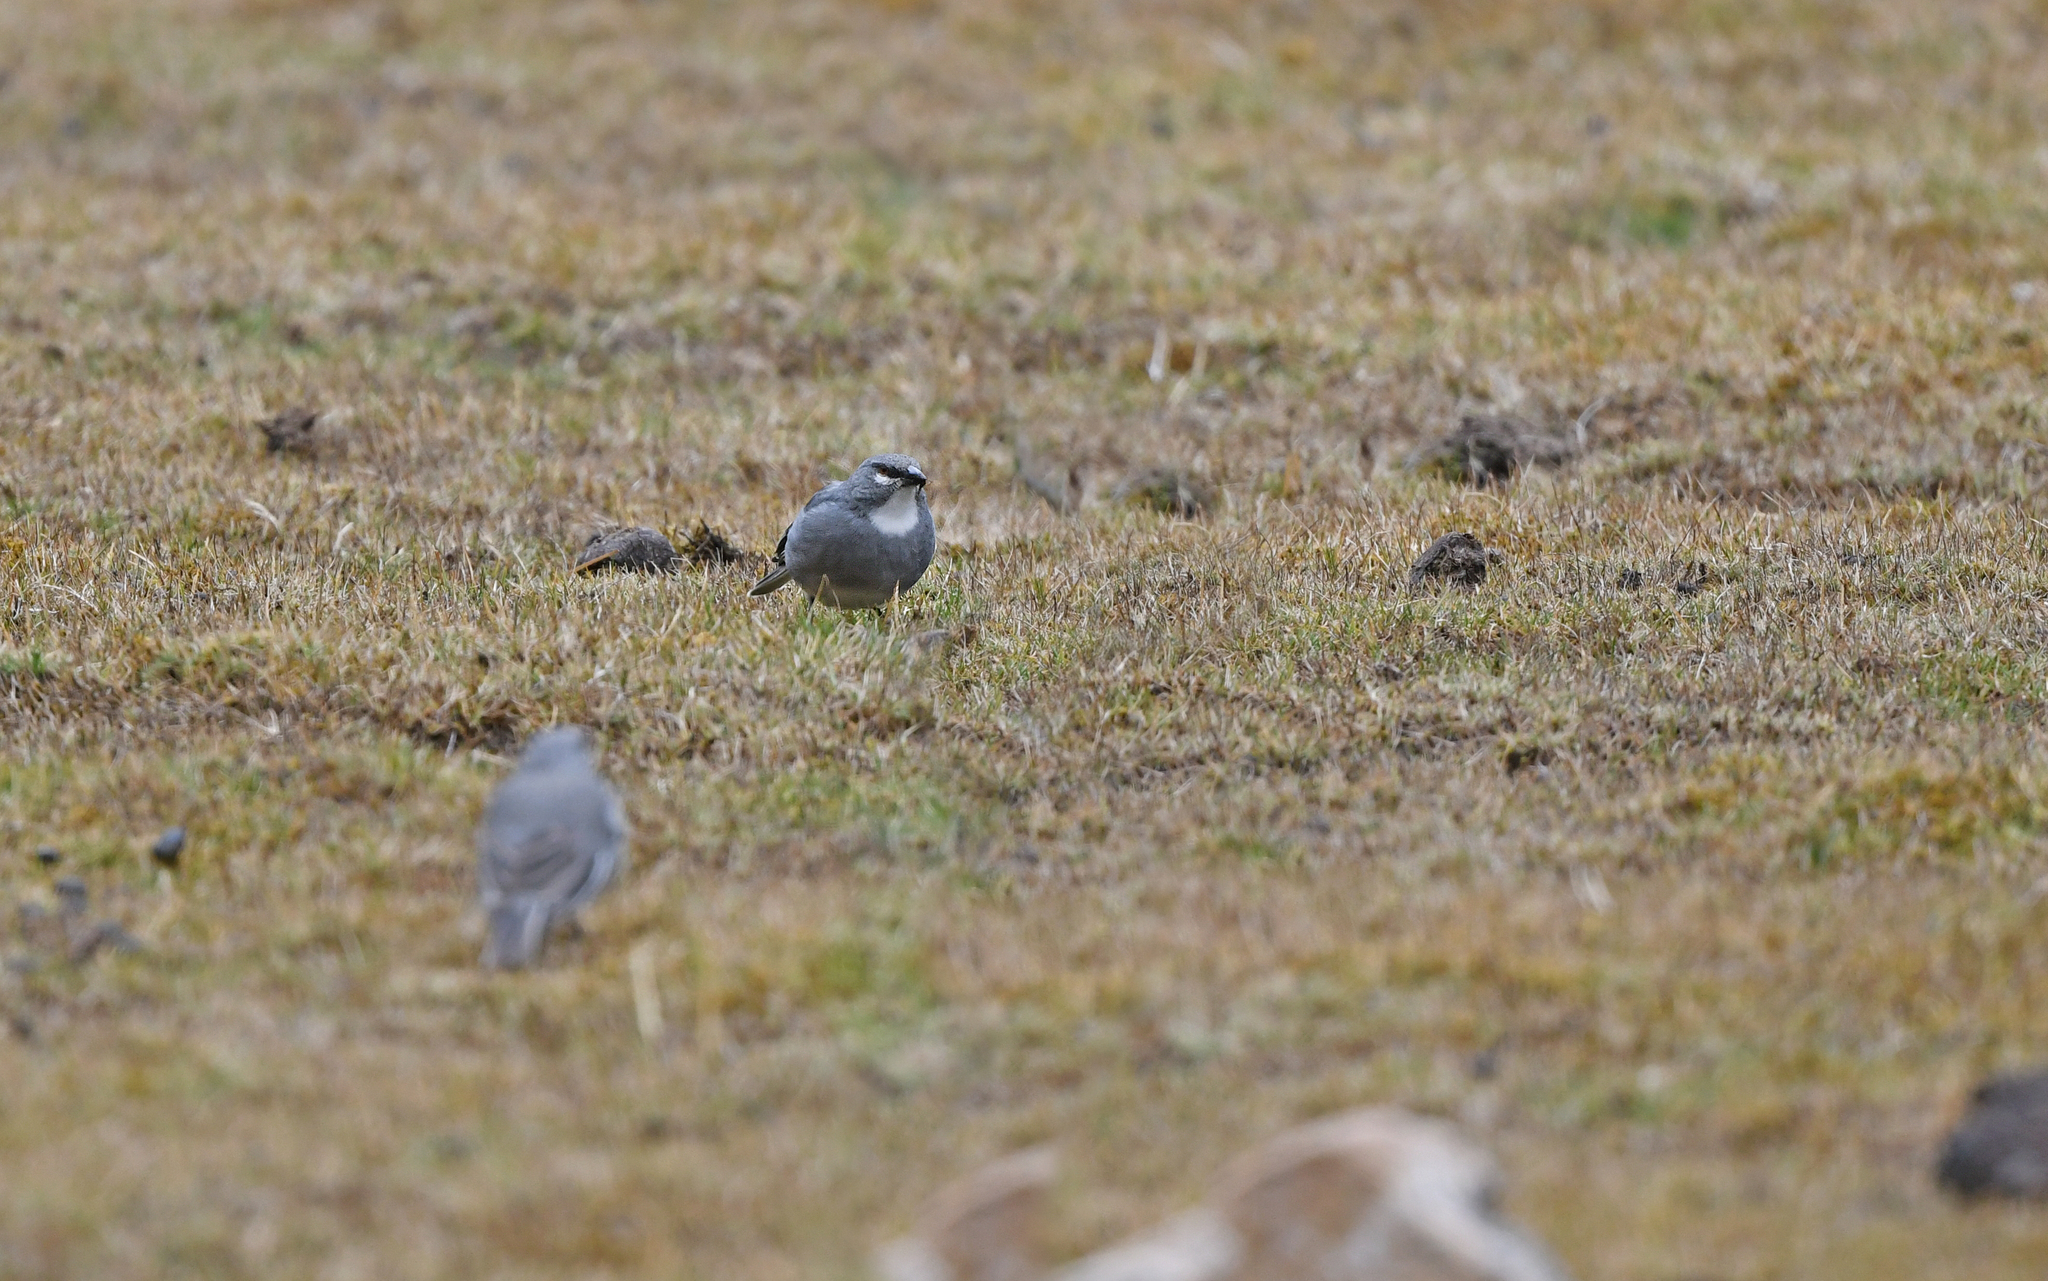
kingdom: Animalia
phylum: Chordata
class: Aves
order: Passeriformes
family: Thraupidae
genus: Idiopsar
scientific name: Idiopsar speculifer
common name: Glacier finch
